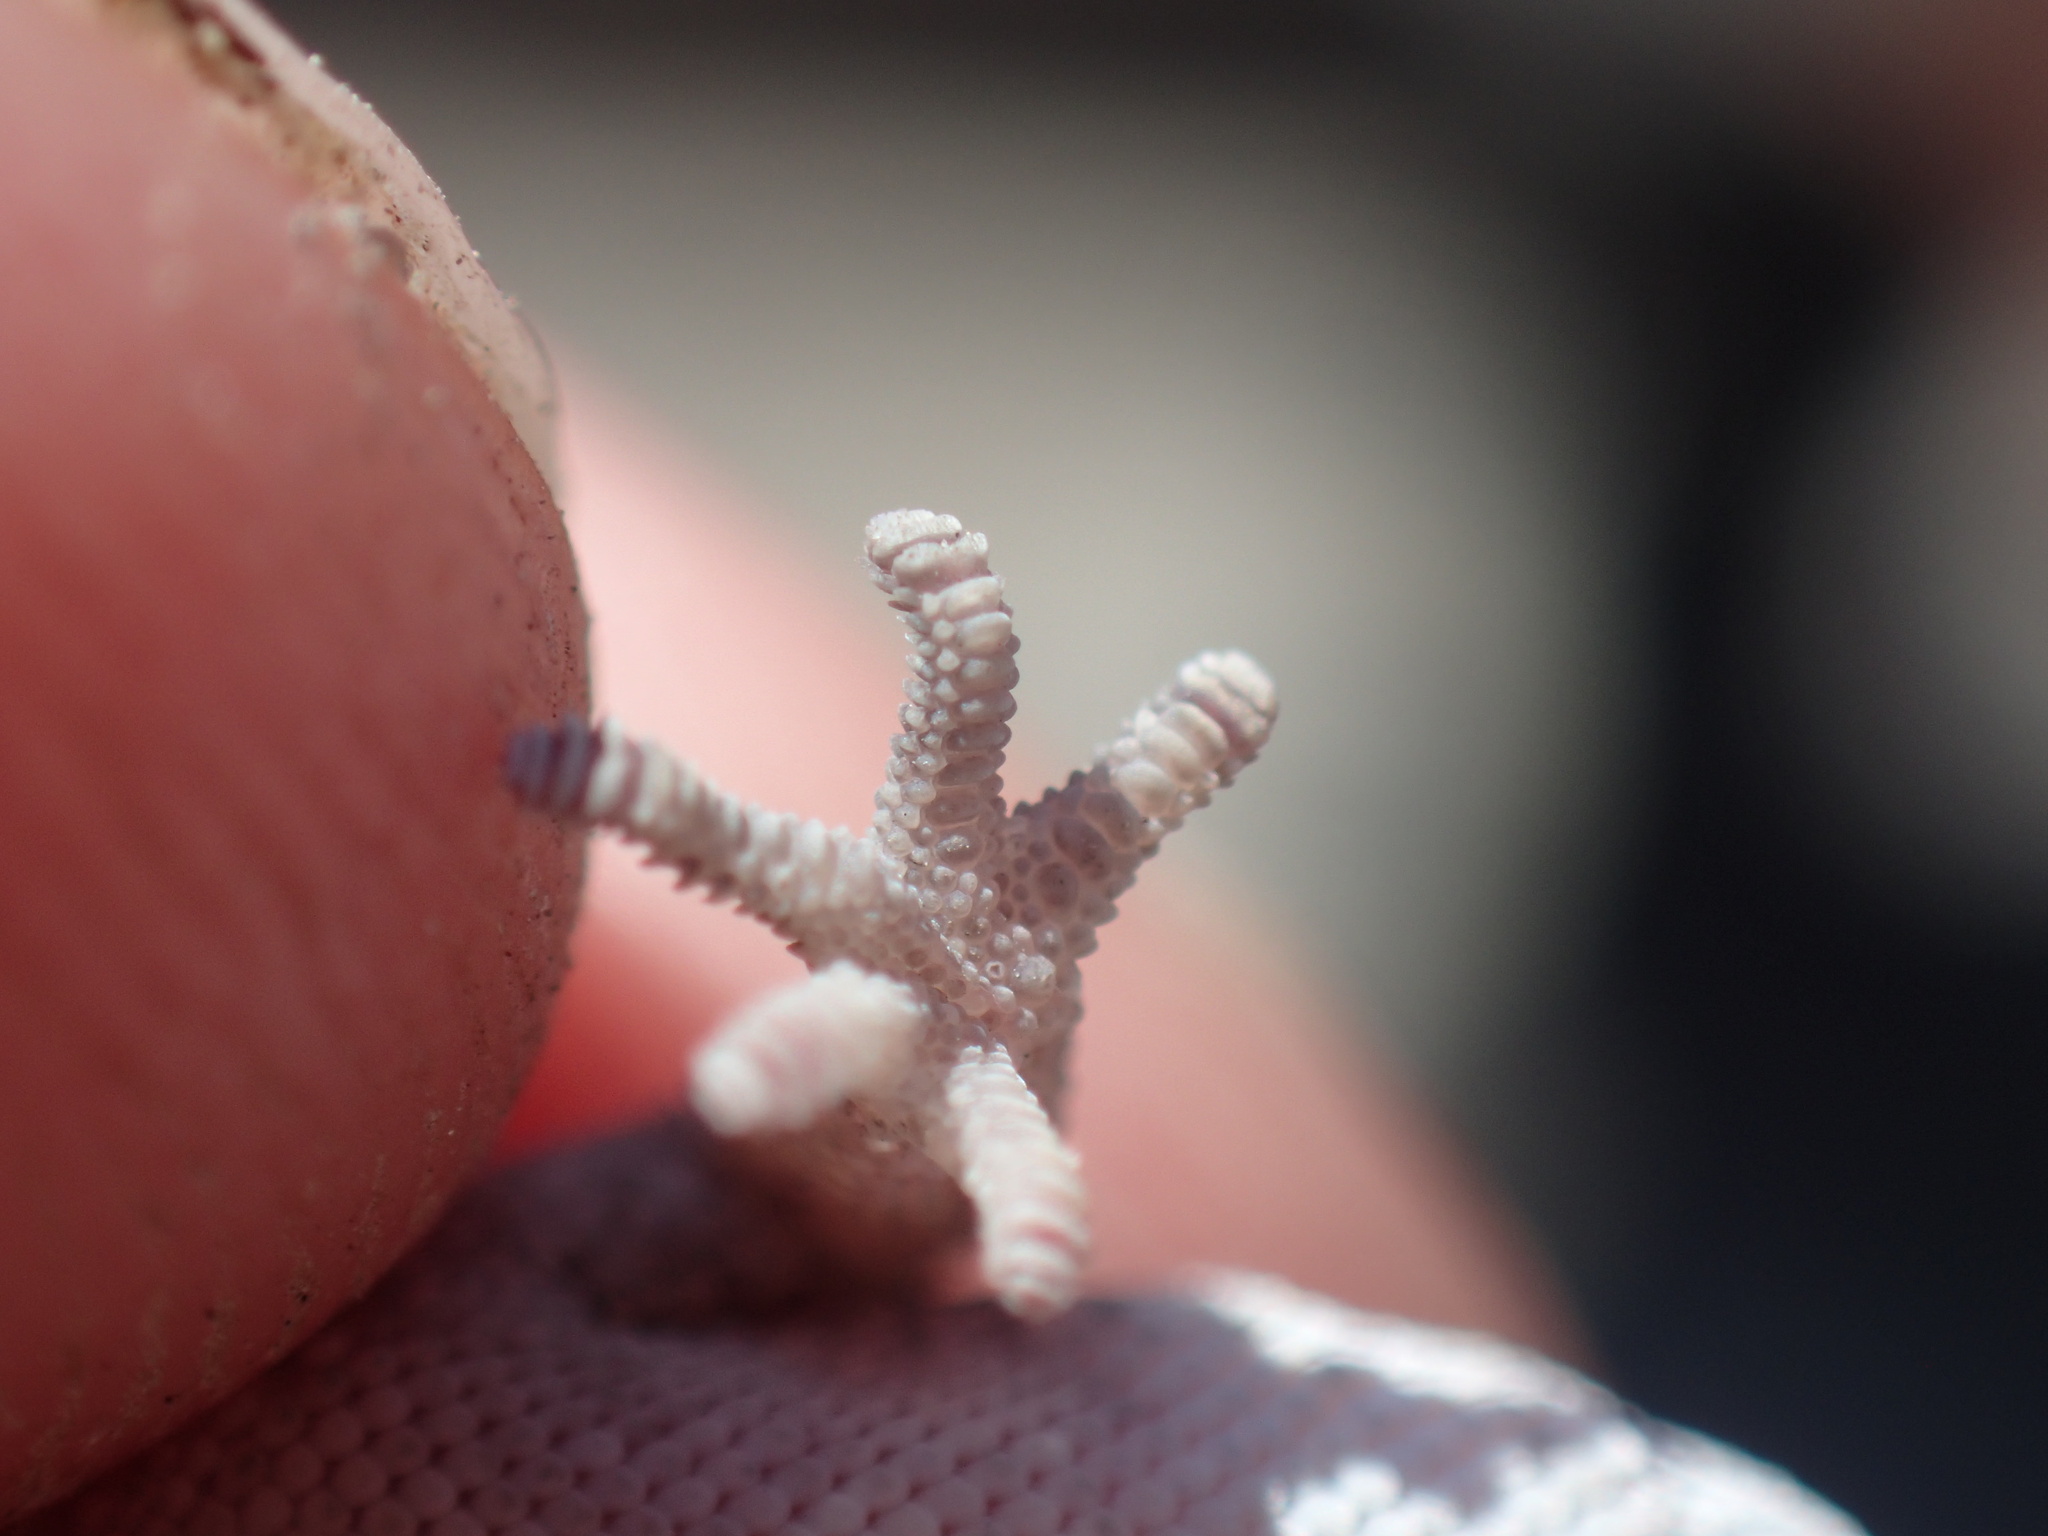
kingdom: Animalia
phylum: Chordata
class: Squamata
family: Gekkonidae
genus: Pachydactylus
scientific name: Pachydactylus punctatus
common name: Pointed thick-toed gecko
